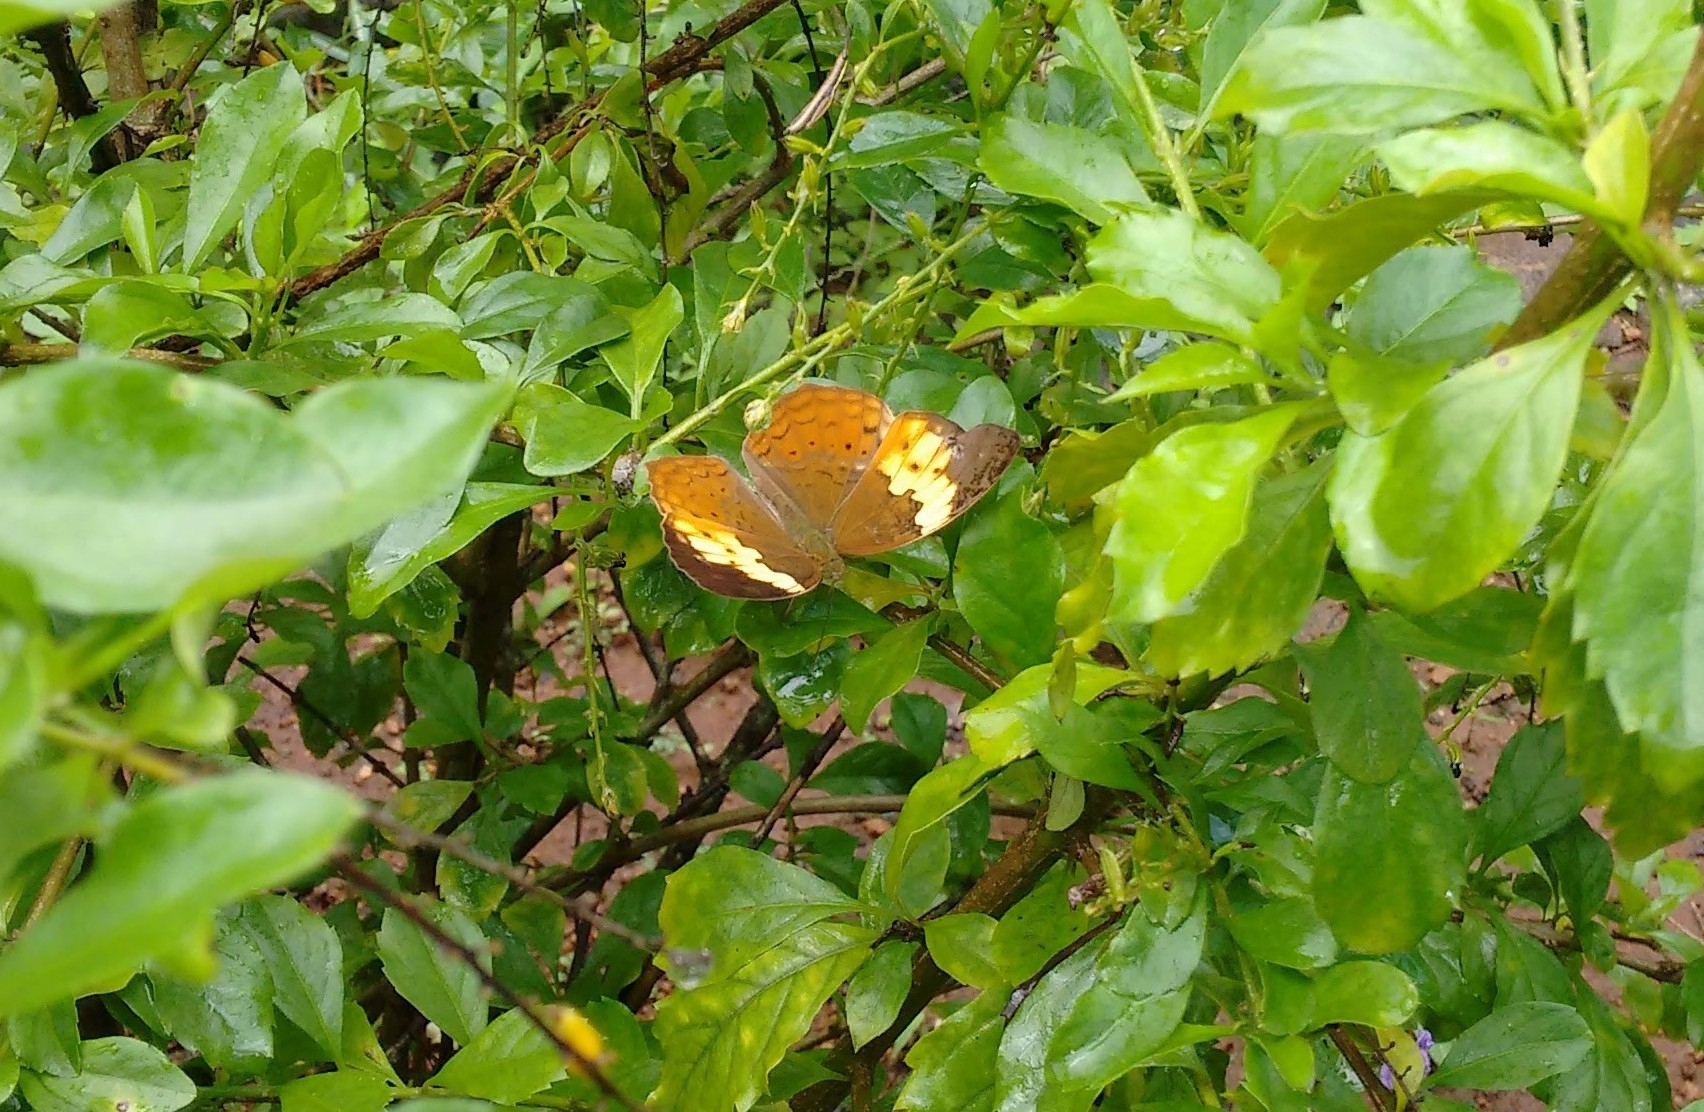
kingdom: Animalia
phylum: Arthropoda
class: Insecta
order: Lepidoptera
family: Nymphalidae
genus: Cupha
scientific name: Cupha erymanthis
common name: Rustic
